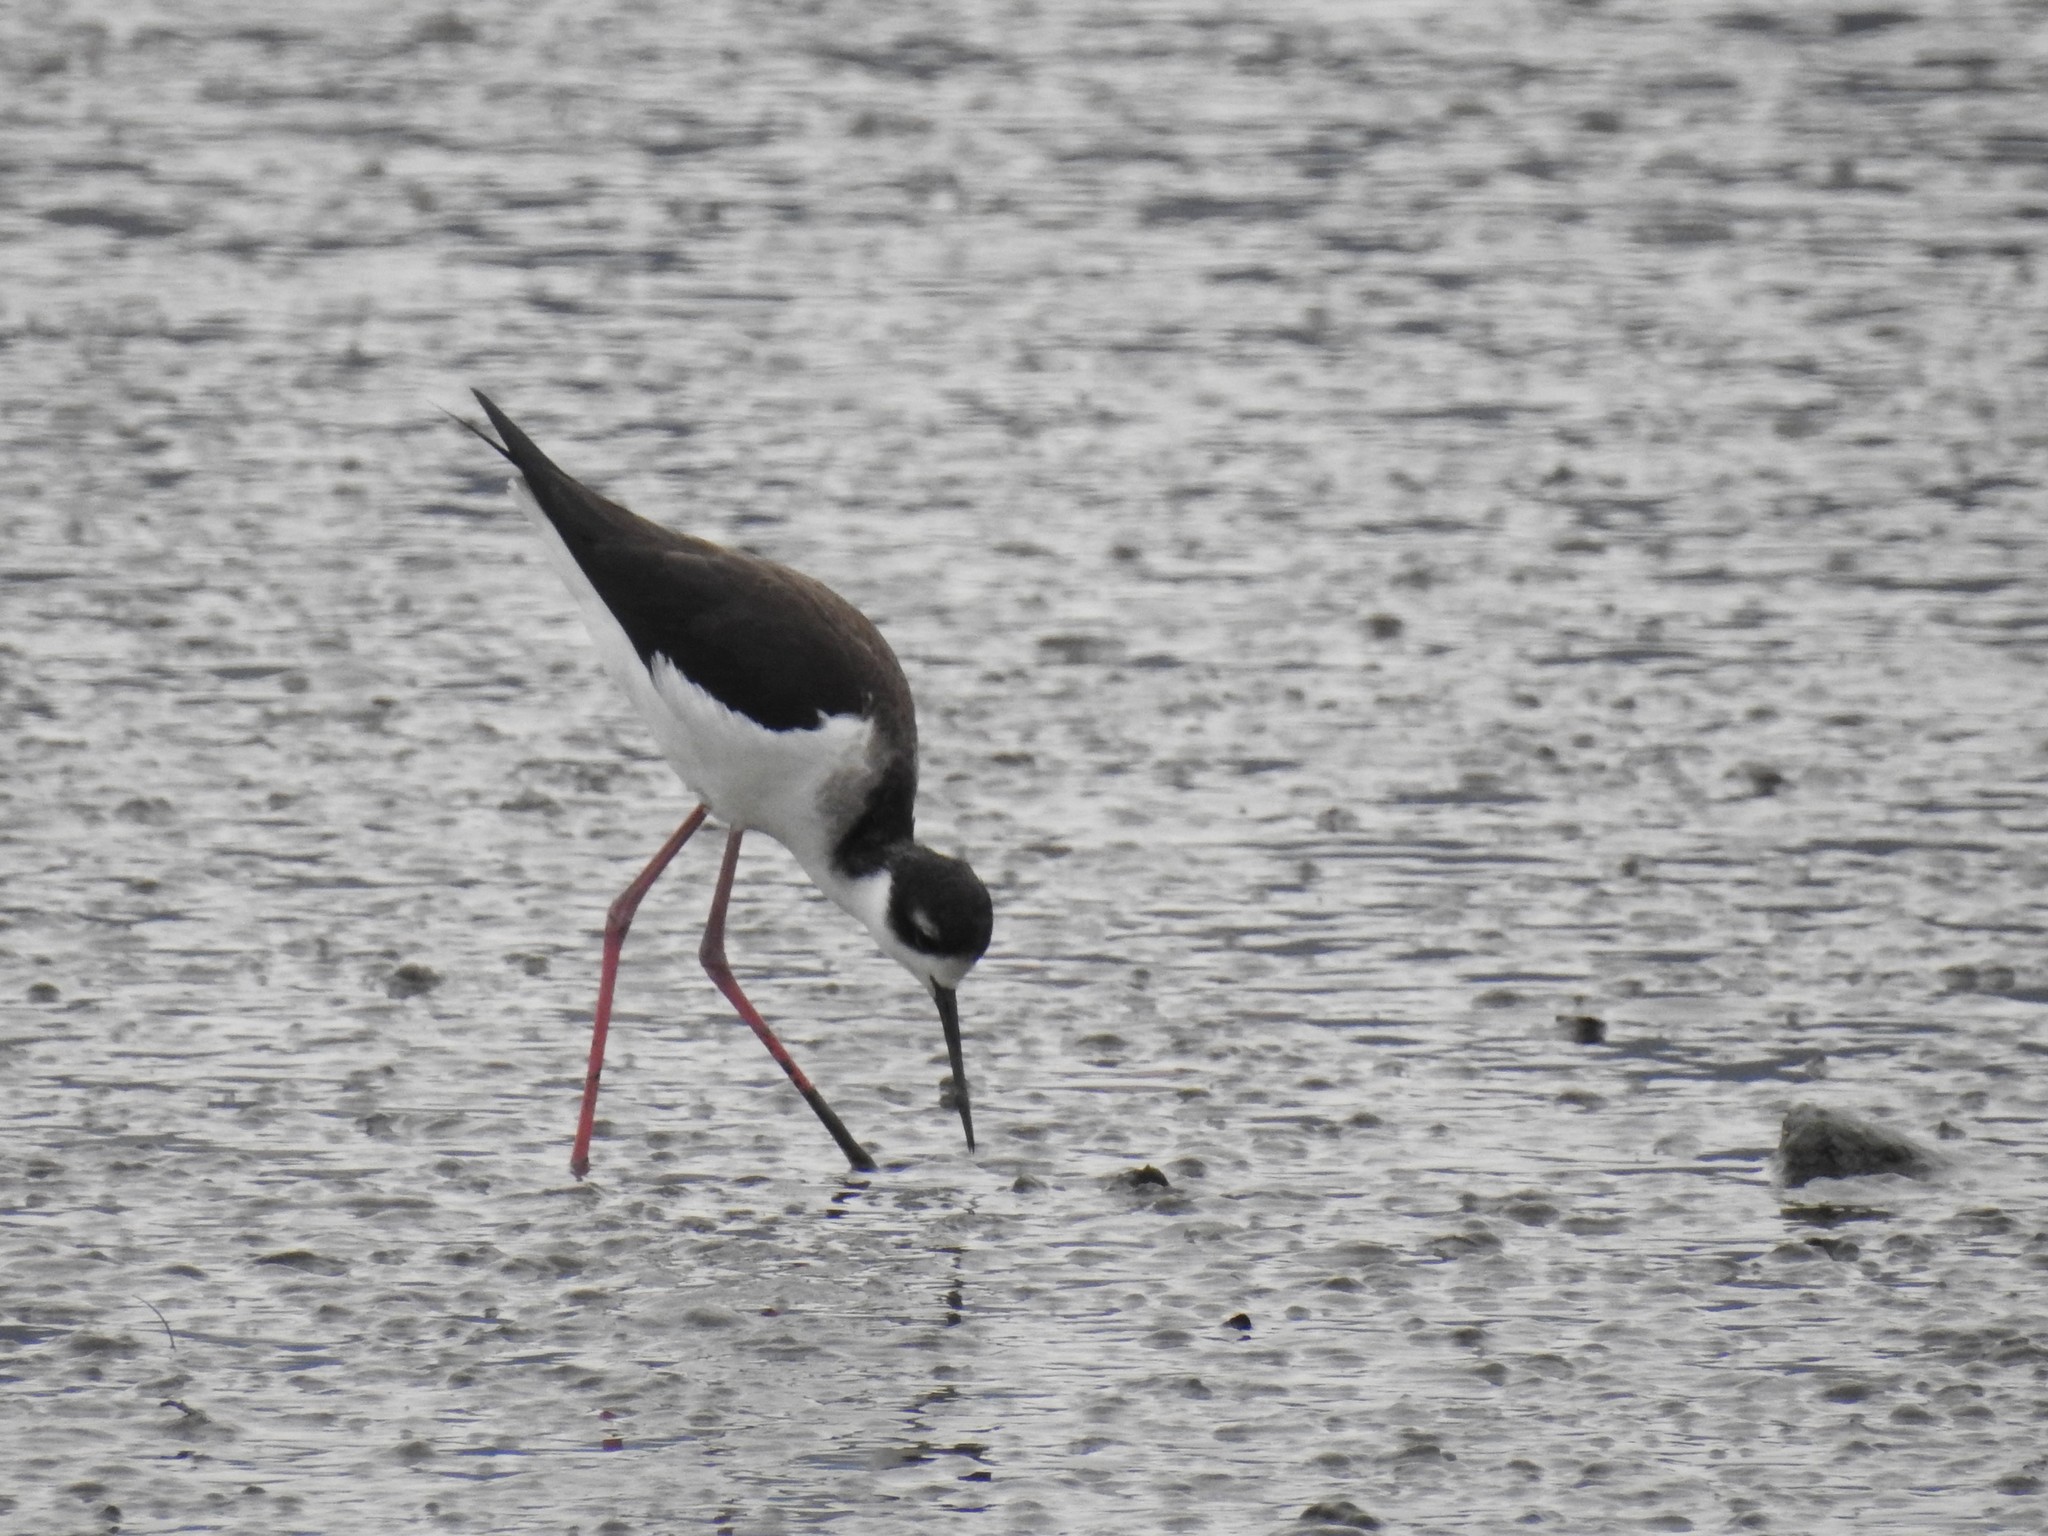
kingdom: Animalia
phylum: Chordata
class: Aves
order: Charadriiformes
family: Recurvirostridae
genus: Himantopus
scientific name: Himantopus mexicanus
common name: Black-necked stilt
